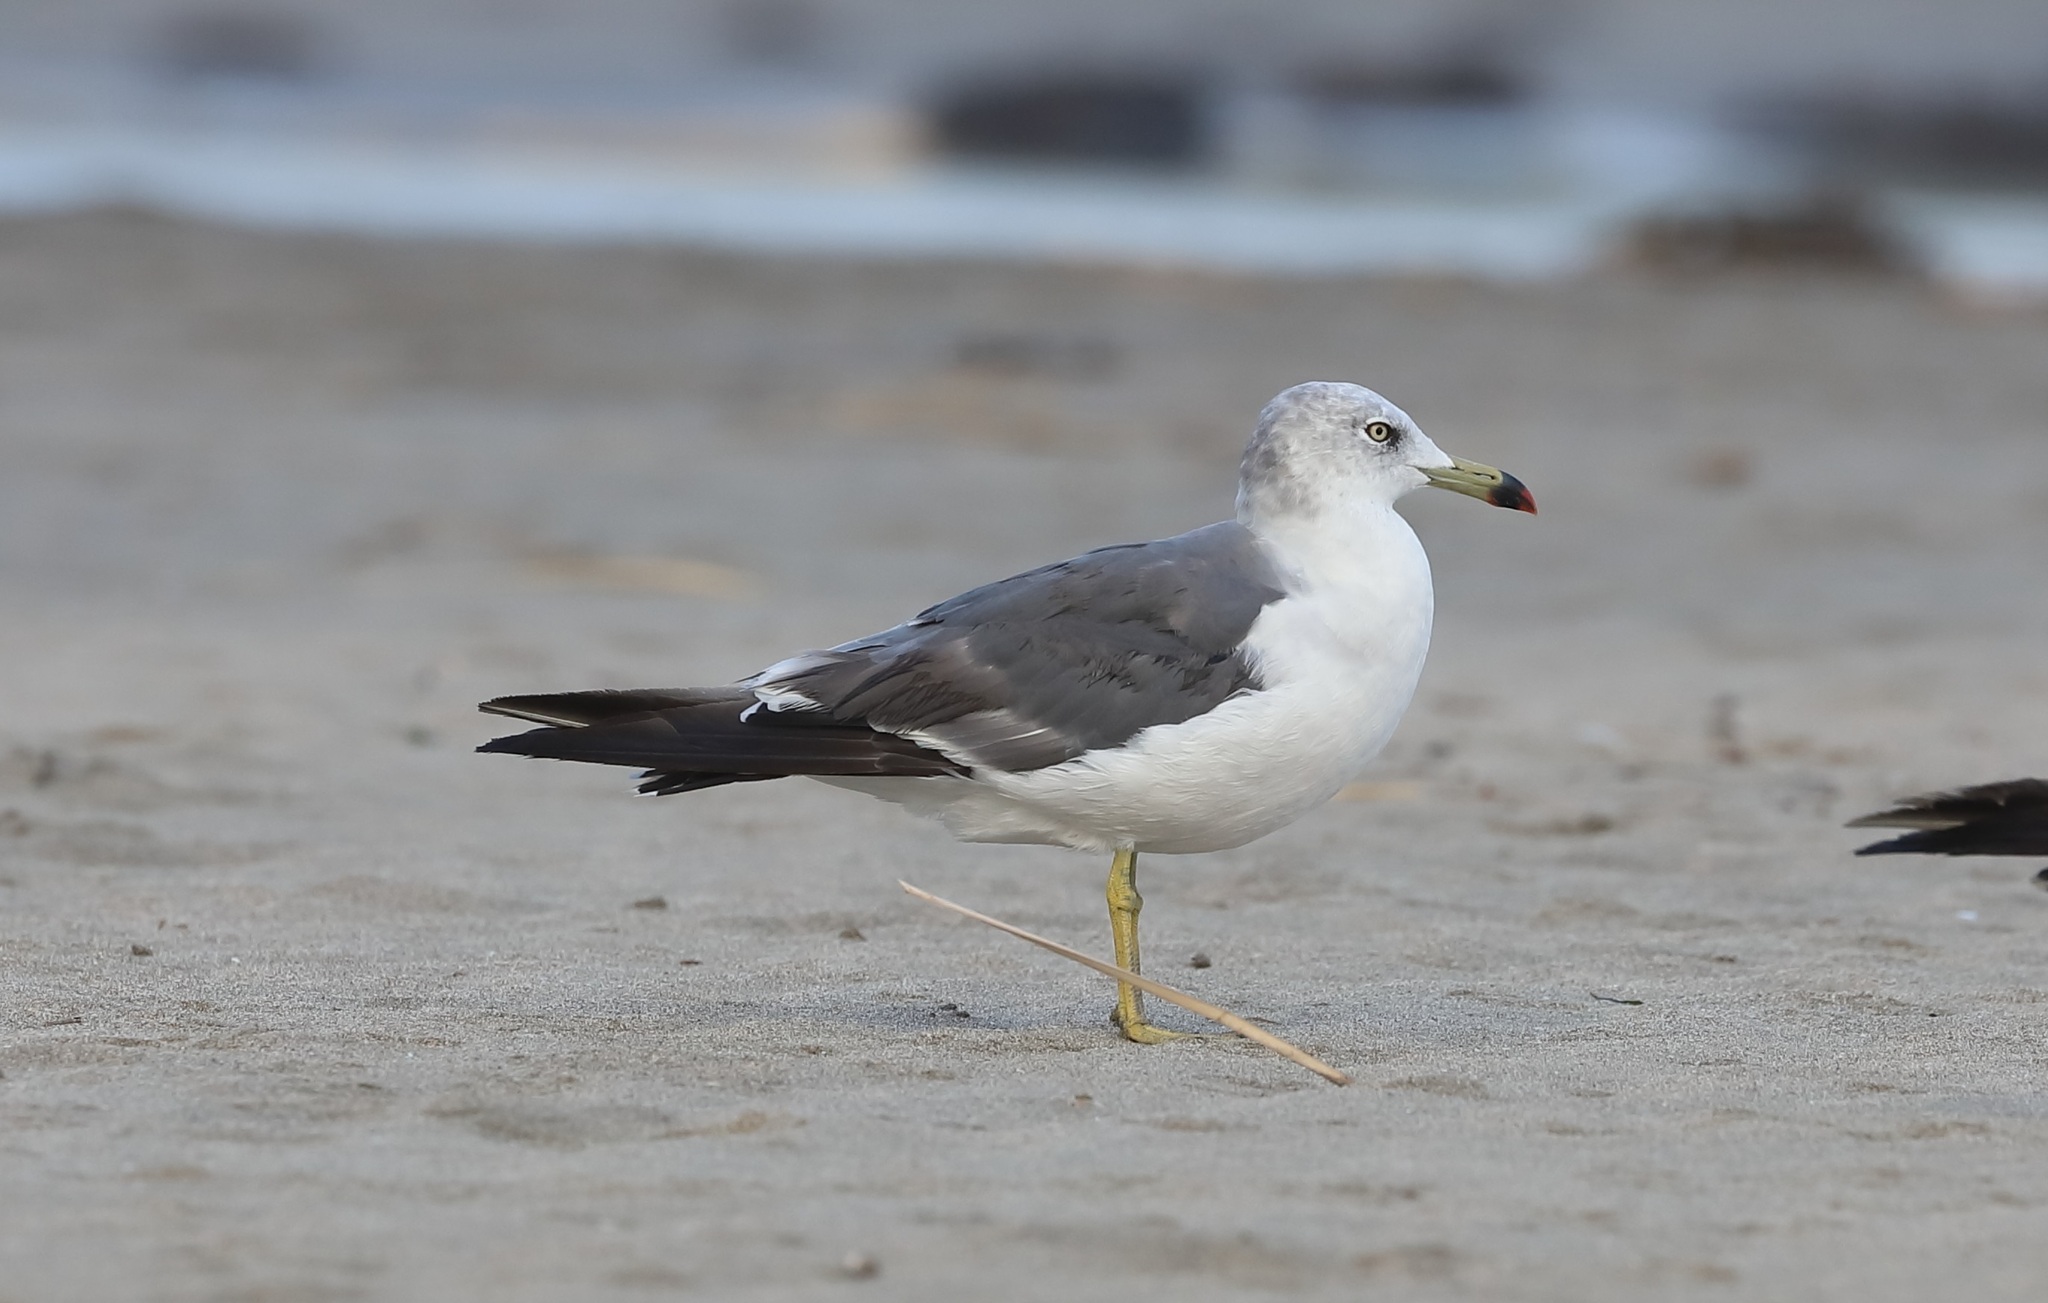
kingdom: Animalia
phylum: Chordata
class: Aves
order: Charadriiformes
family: Laridae
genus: Larus
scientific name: Larus crassirostris
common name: Black-tailed gull
